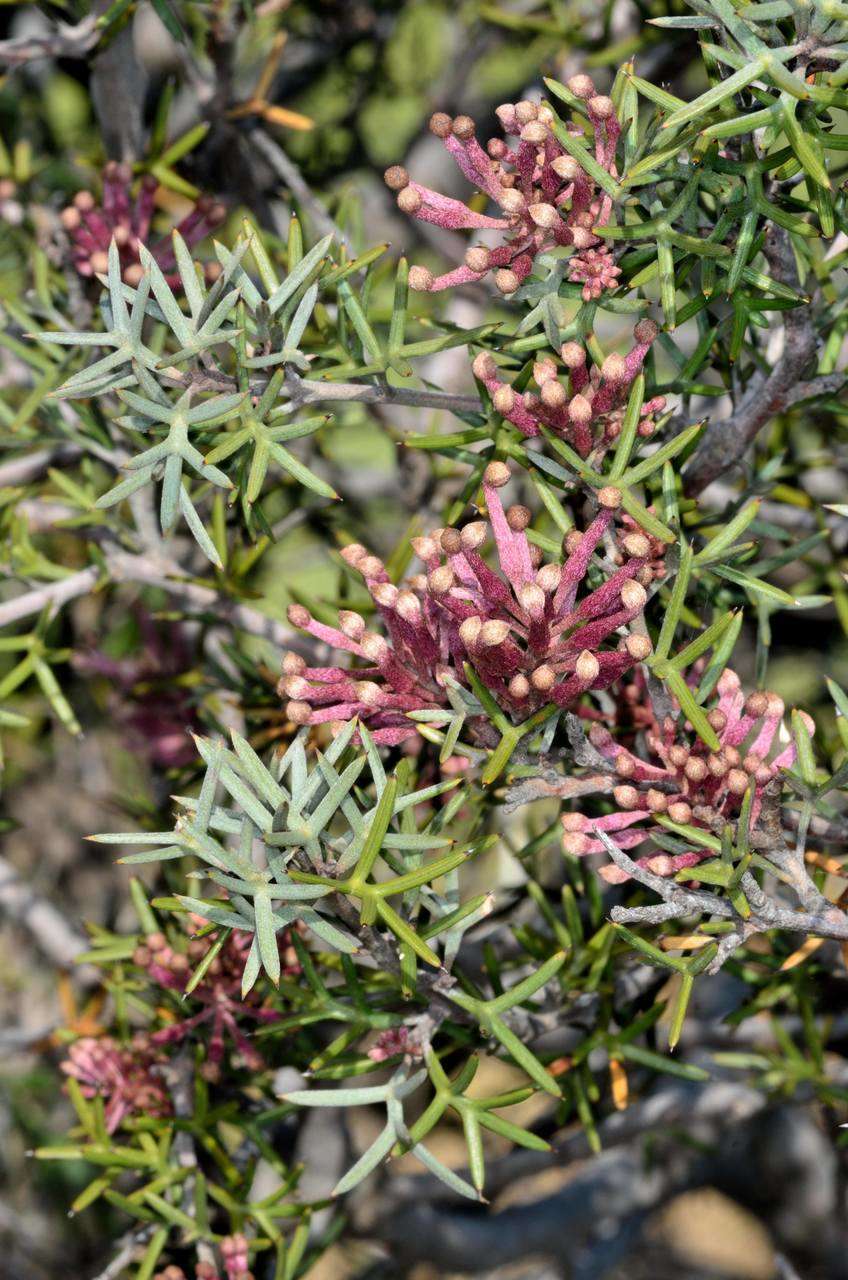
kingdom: Plantae
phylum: Tracheophyta
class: Magnoliopsida
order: Proteales
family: Proteaceae
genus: Grevillea
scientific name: Grevillea huegelii
